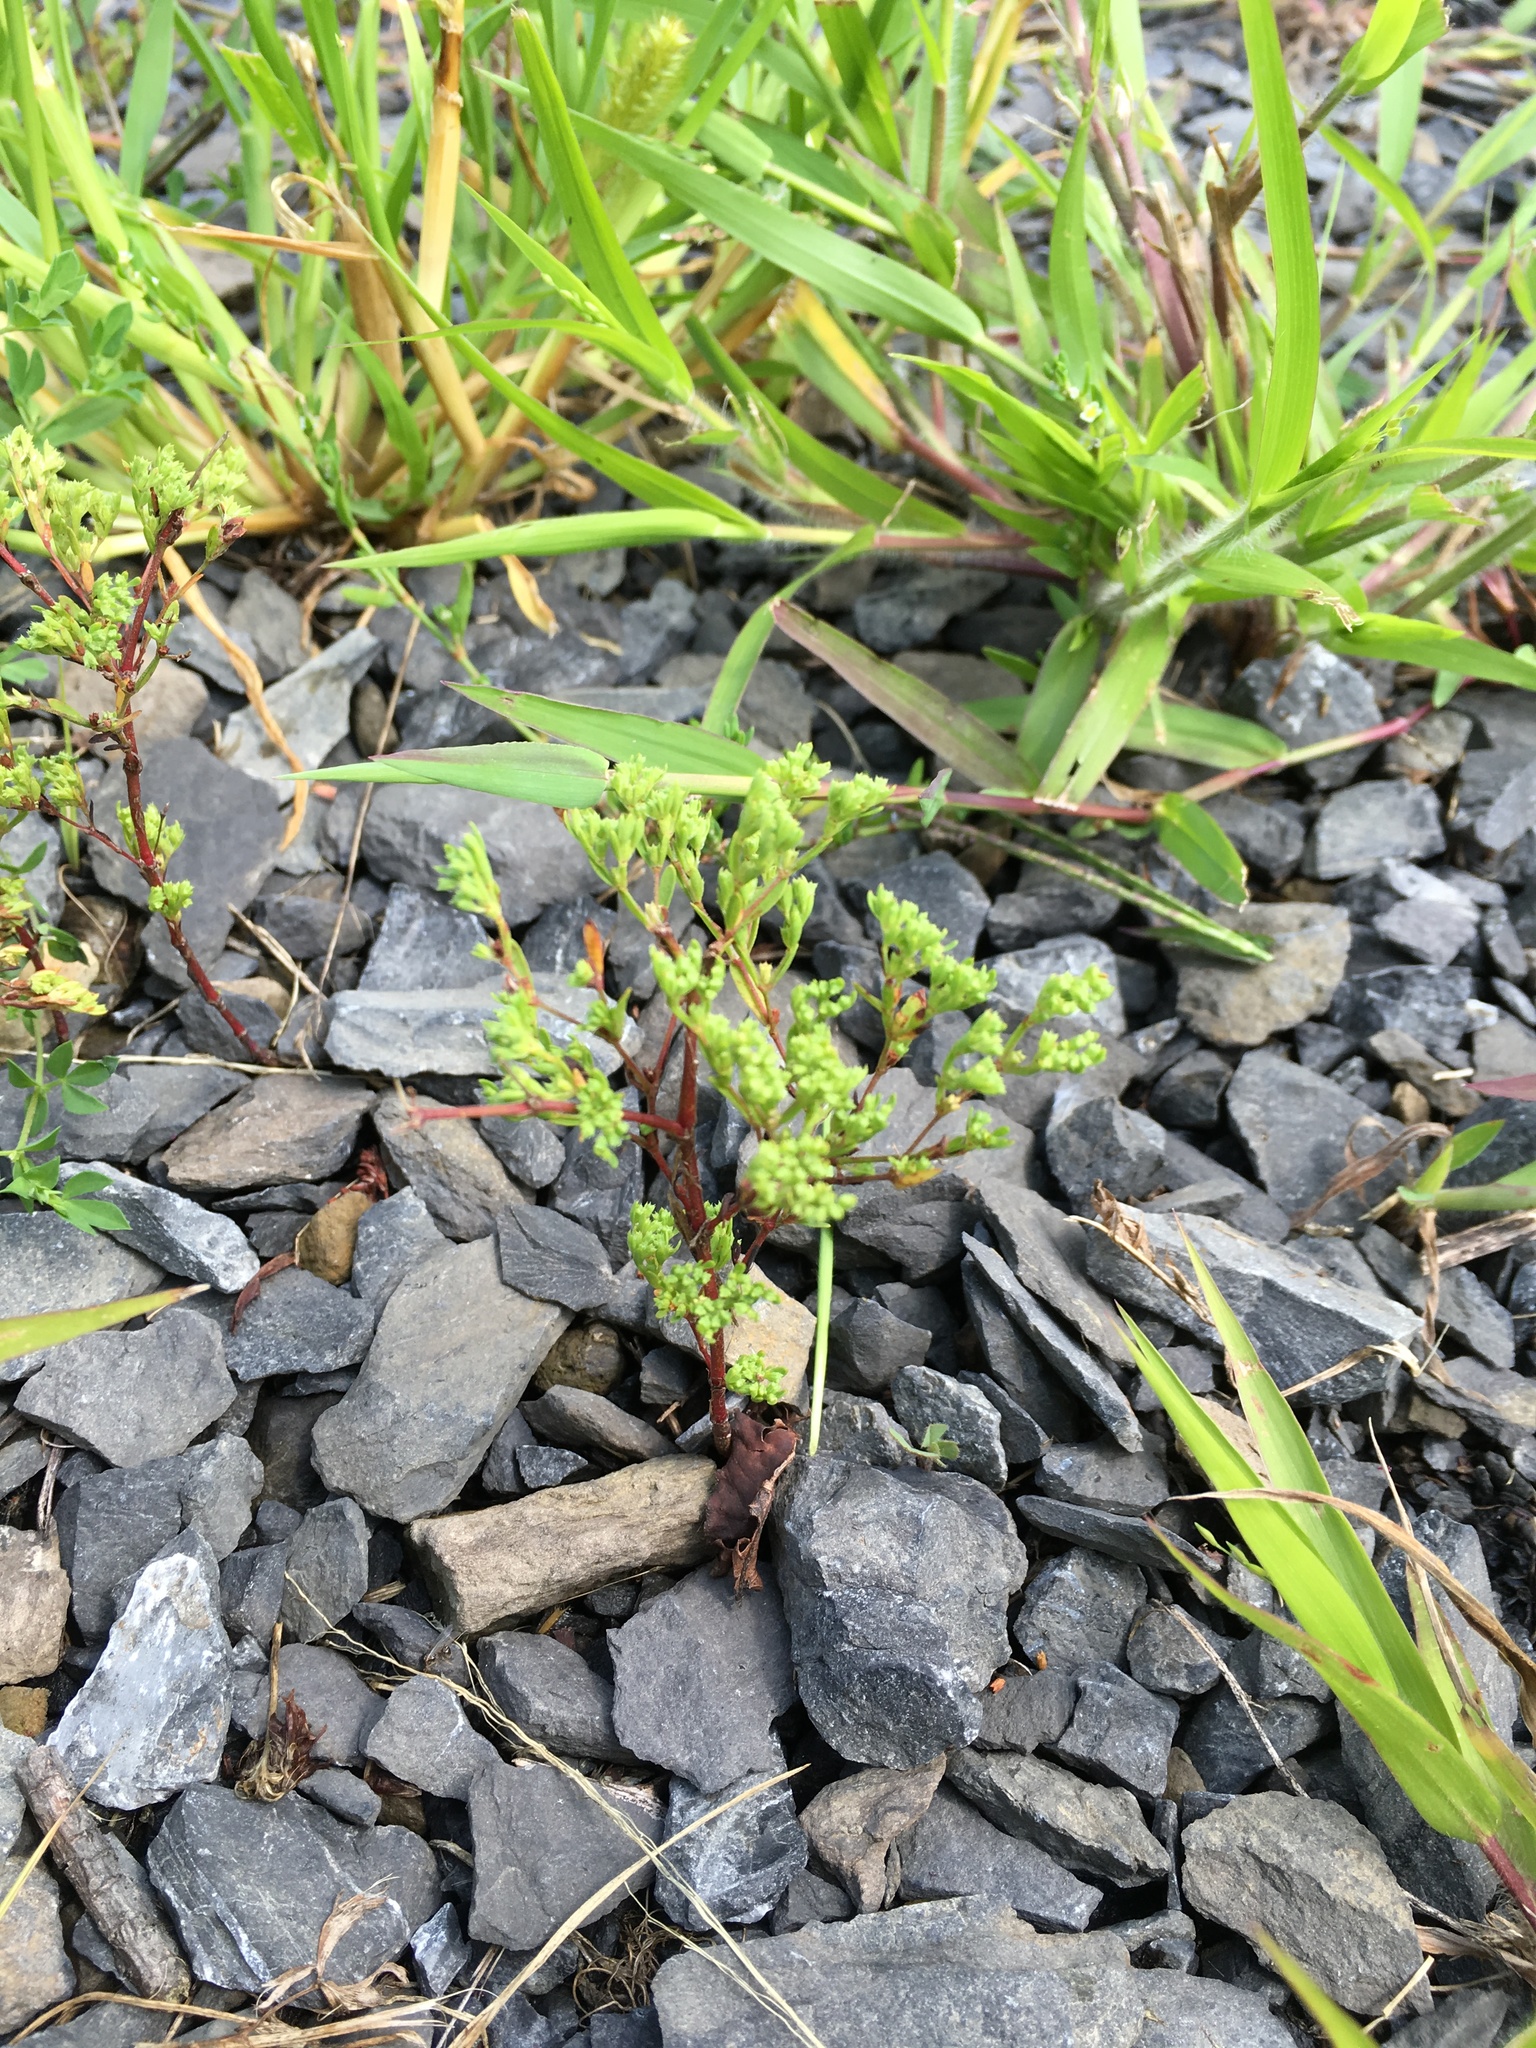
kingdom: Plantae
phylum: Tracheophyta
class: Magnoliopsida
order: Caryophyllales
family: Caryophyllaceae
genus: Paronychia
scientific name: Paronychia fastigiata
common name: Branching forked whitlow-wort
